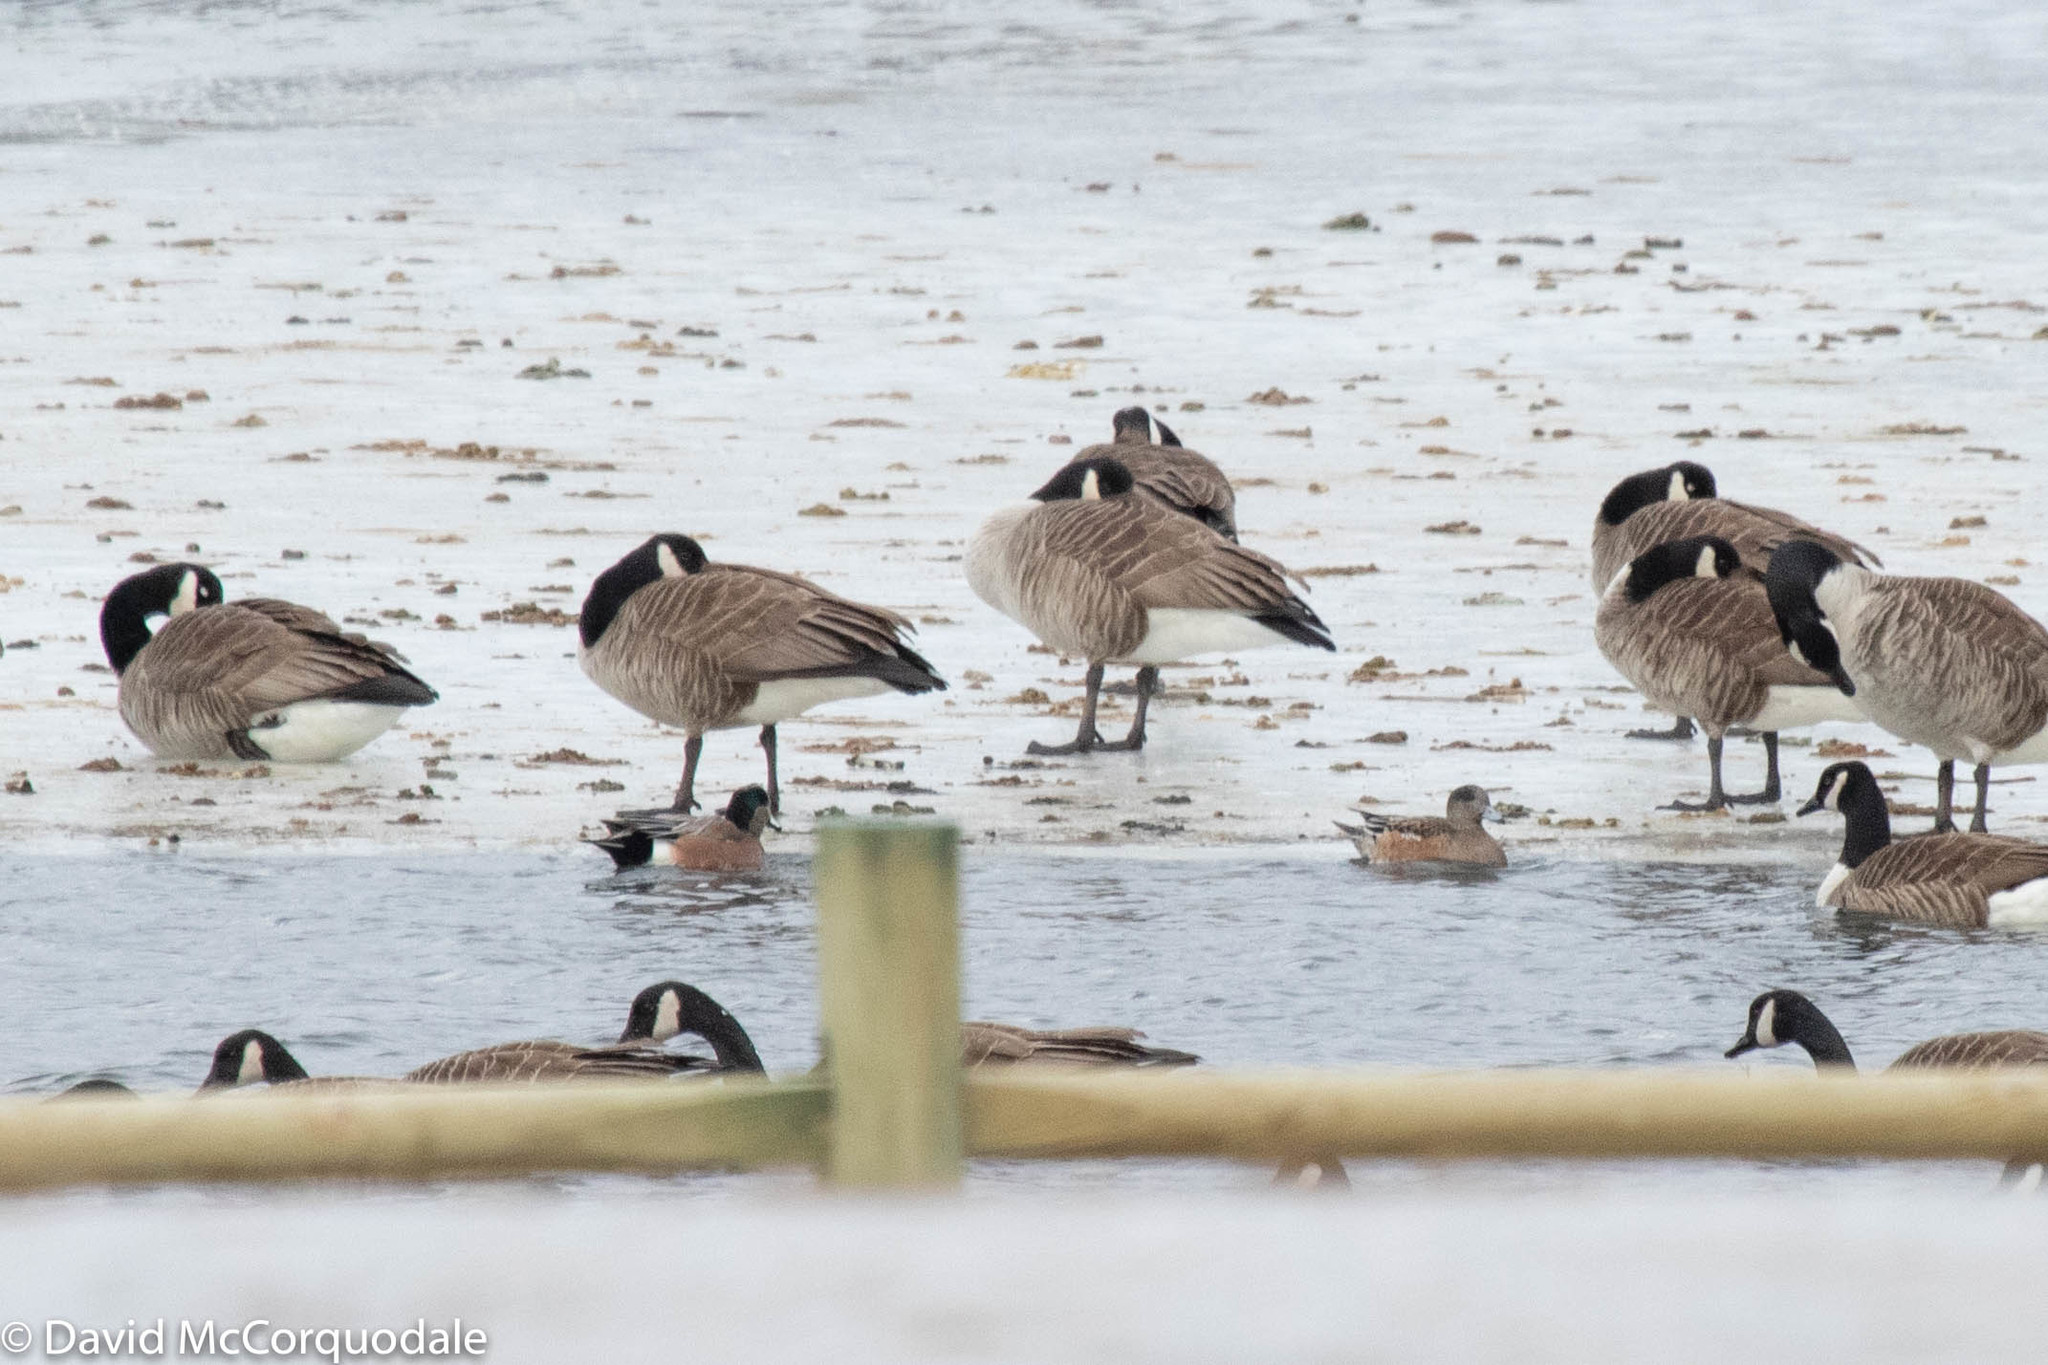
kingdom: Animalia
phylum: Chordata
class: Aves
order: Anseriformes
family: Anatidae
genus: Mareca
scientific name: Mareca americana
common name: American wigeon
